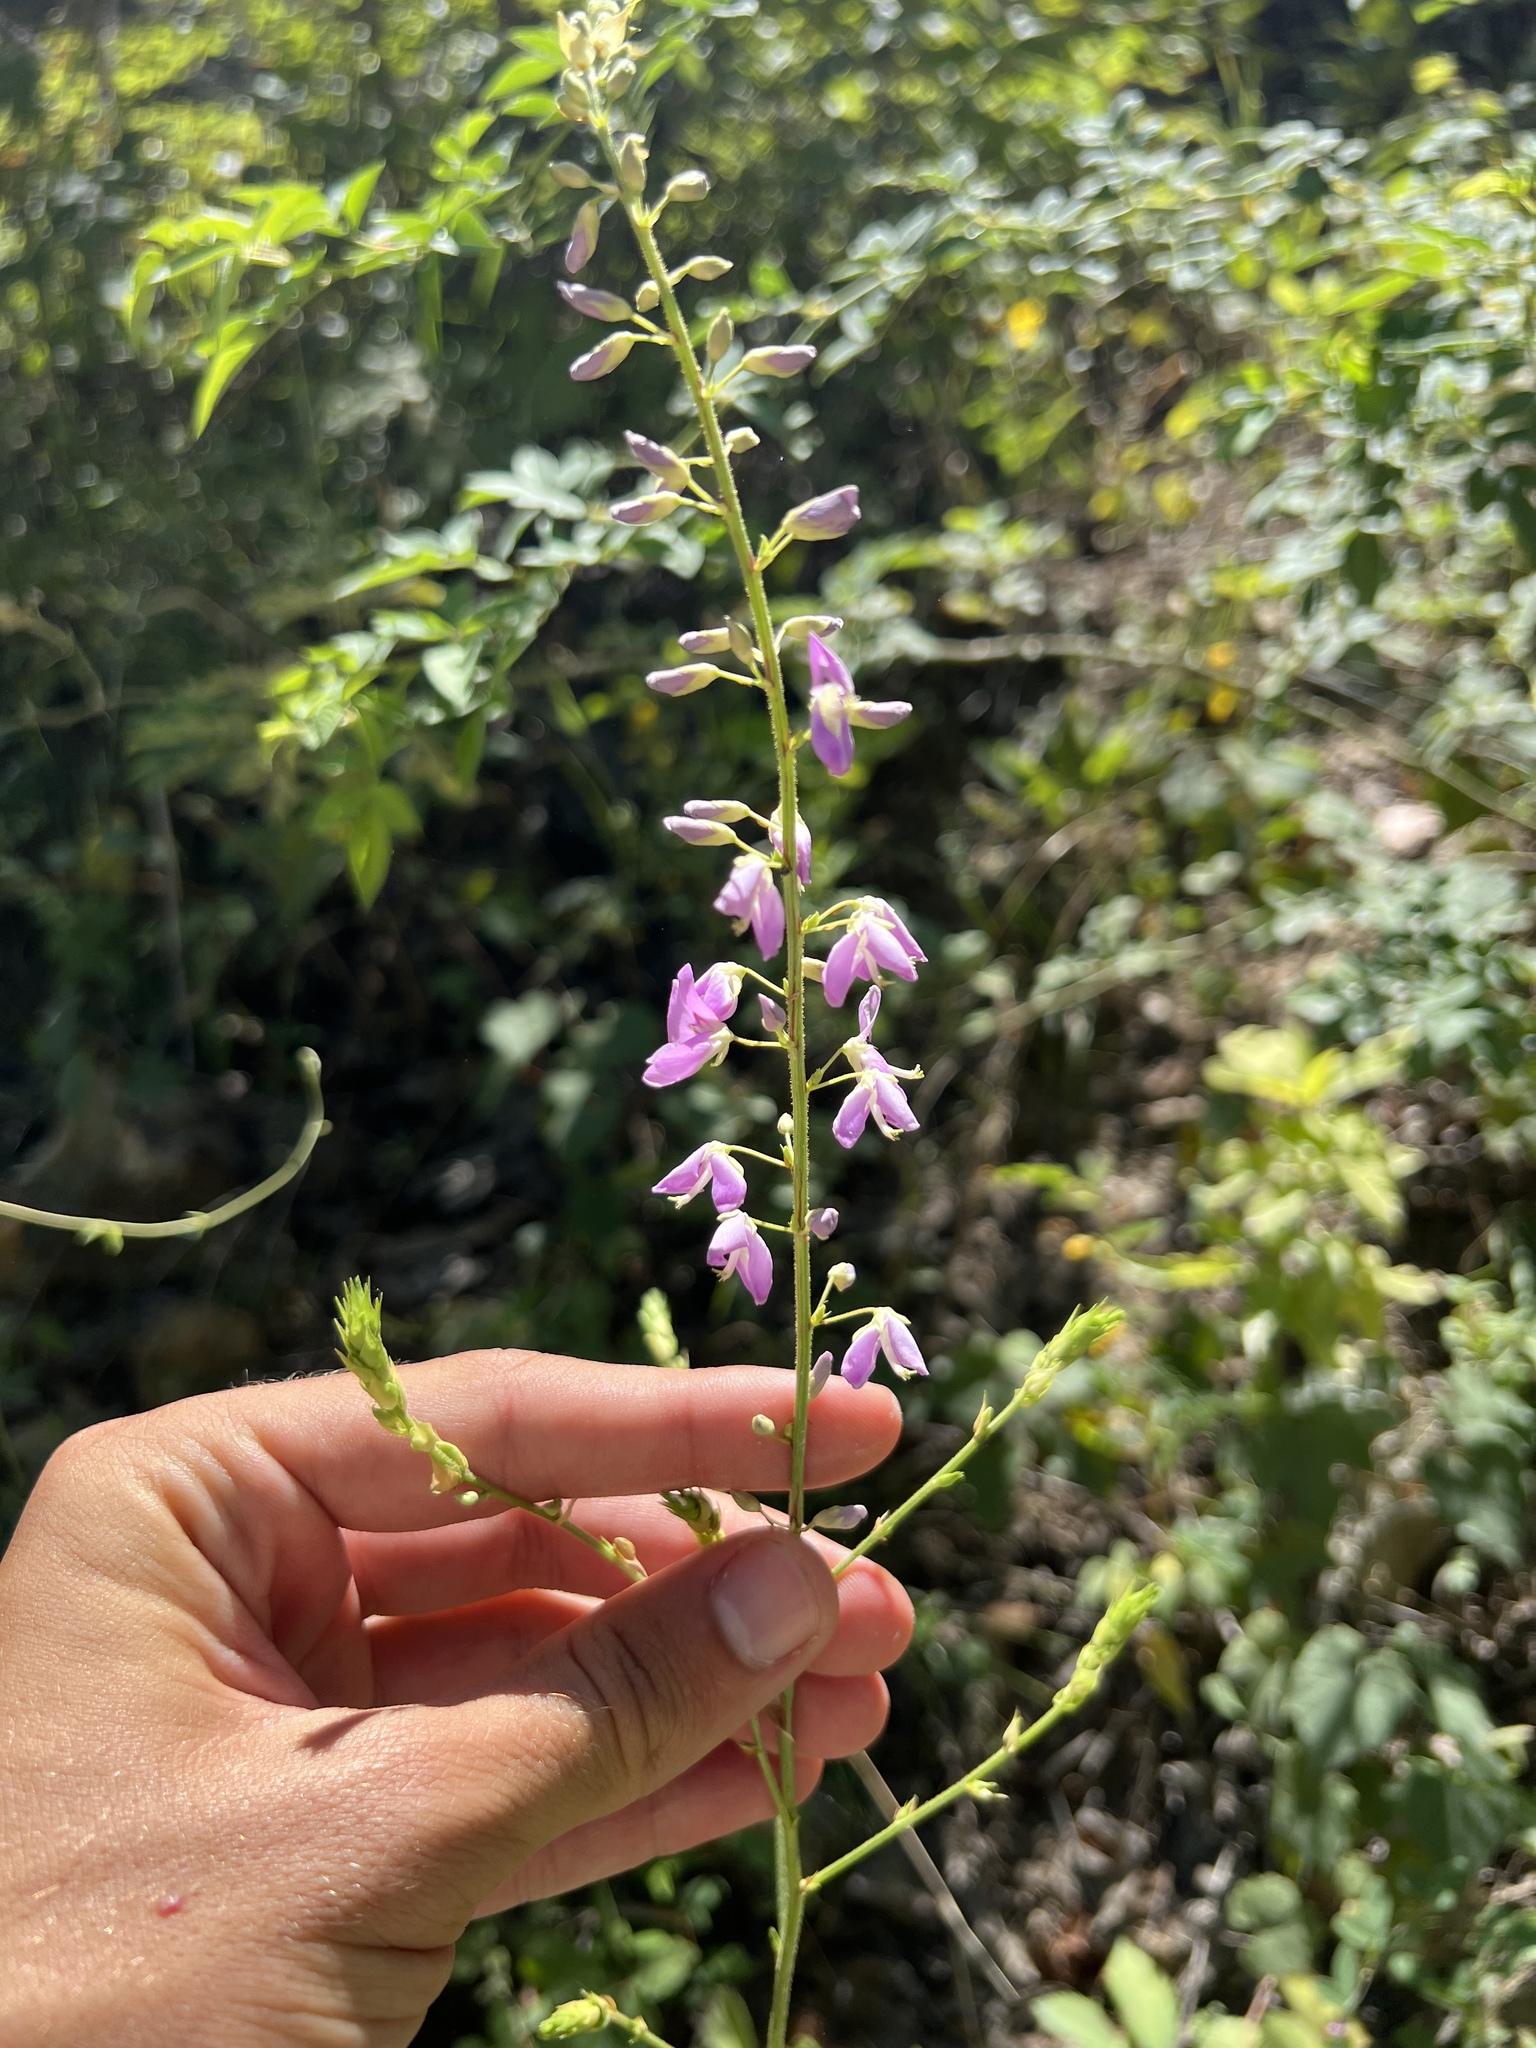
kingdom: Plantae
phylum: Tracheophyta
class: Magnoliopsida
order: Fabales
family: Fabaceae
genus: Desmodium
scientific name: Desmodium cuspidatum
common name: Big tick trefoil
